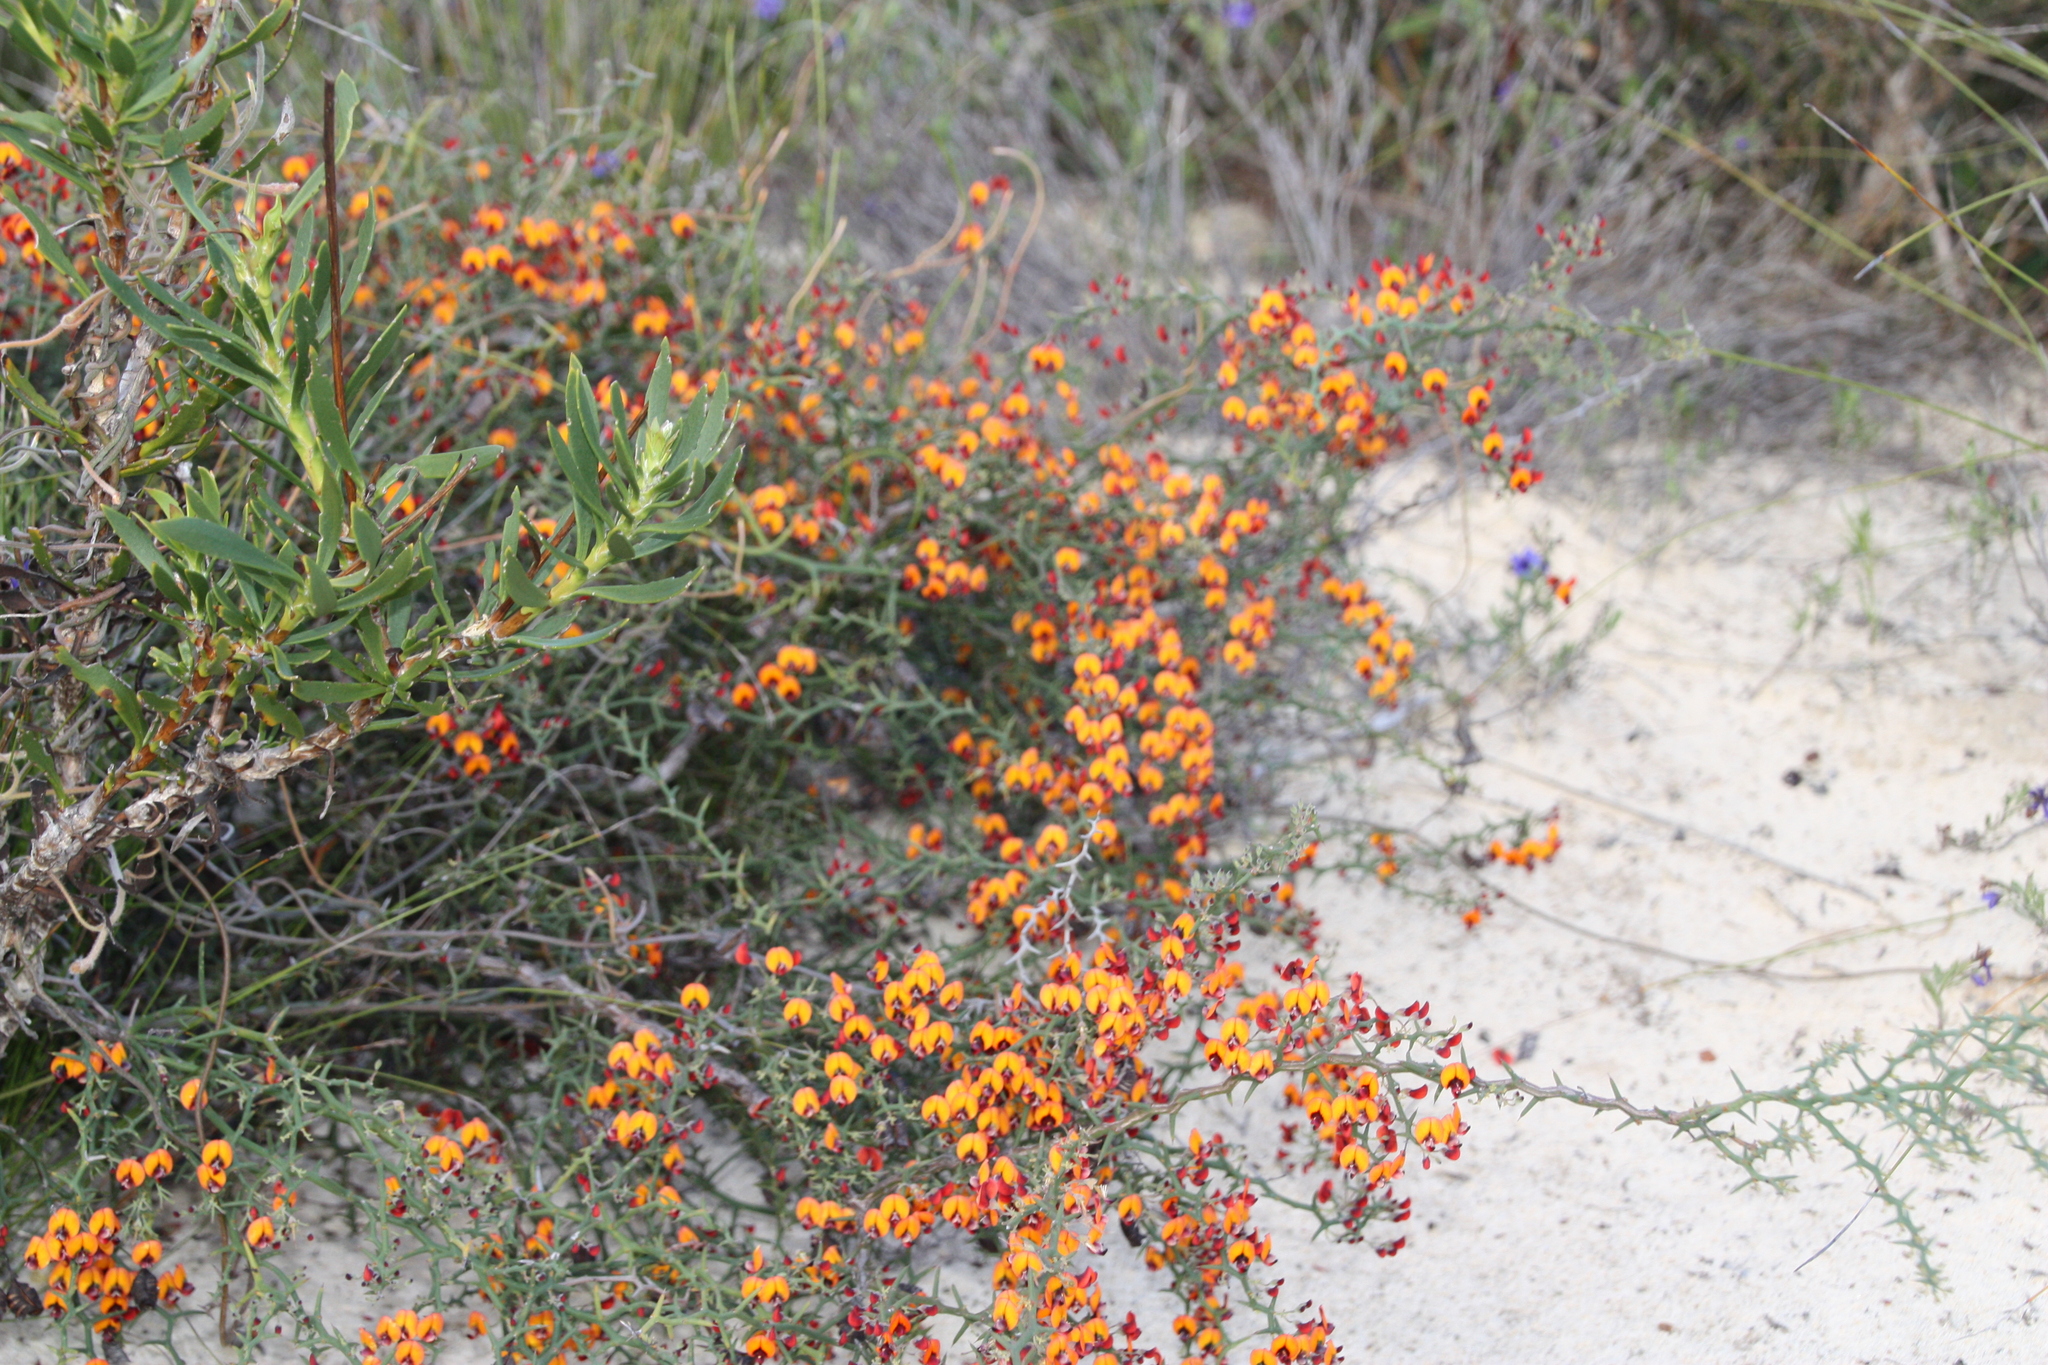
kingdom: Plantae
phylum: Tracheophyta
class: Magnoliopsida
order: Fabales
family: Fabaceae
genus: Daviesia
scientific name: Daviesia incrassata
